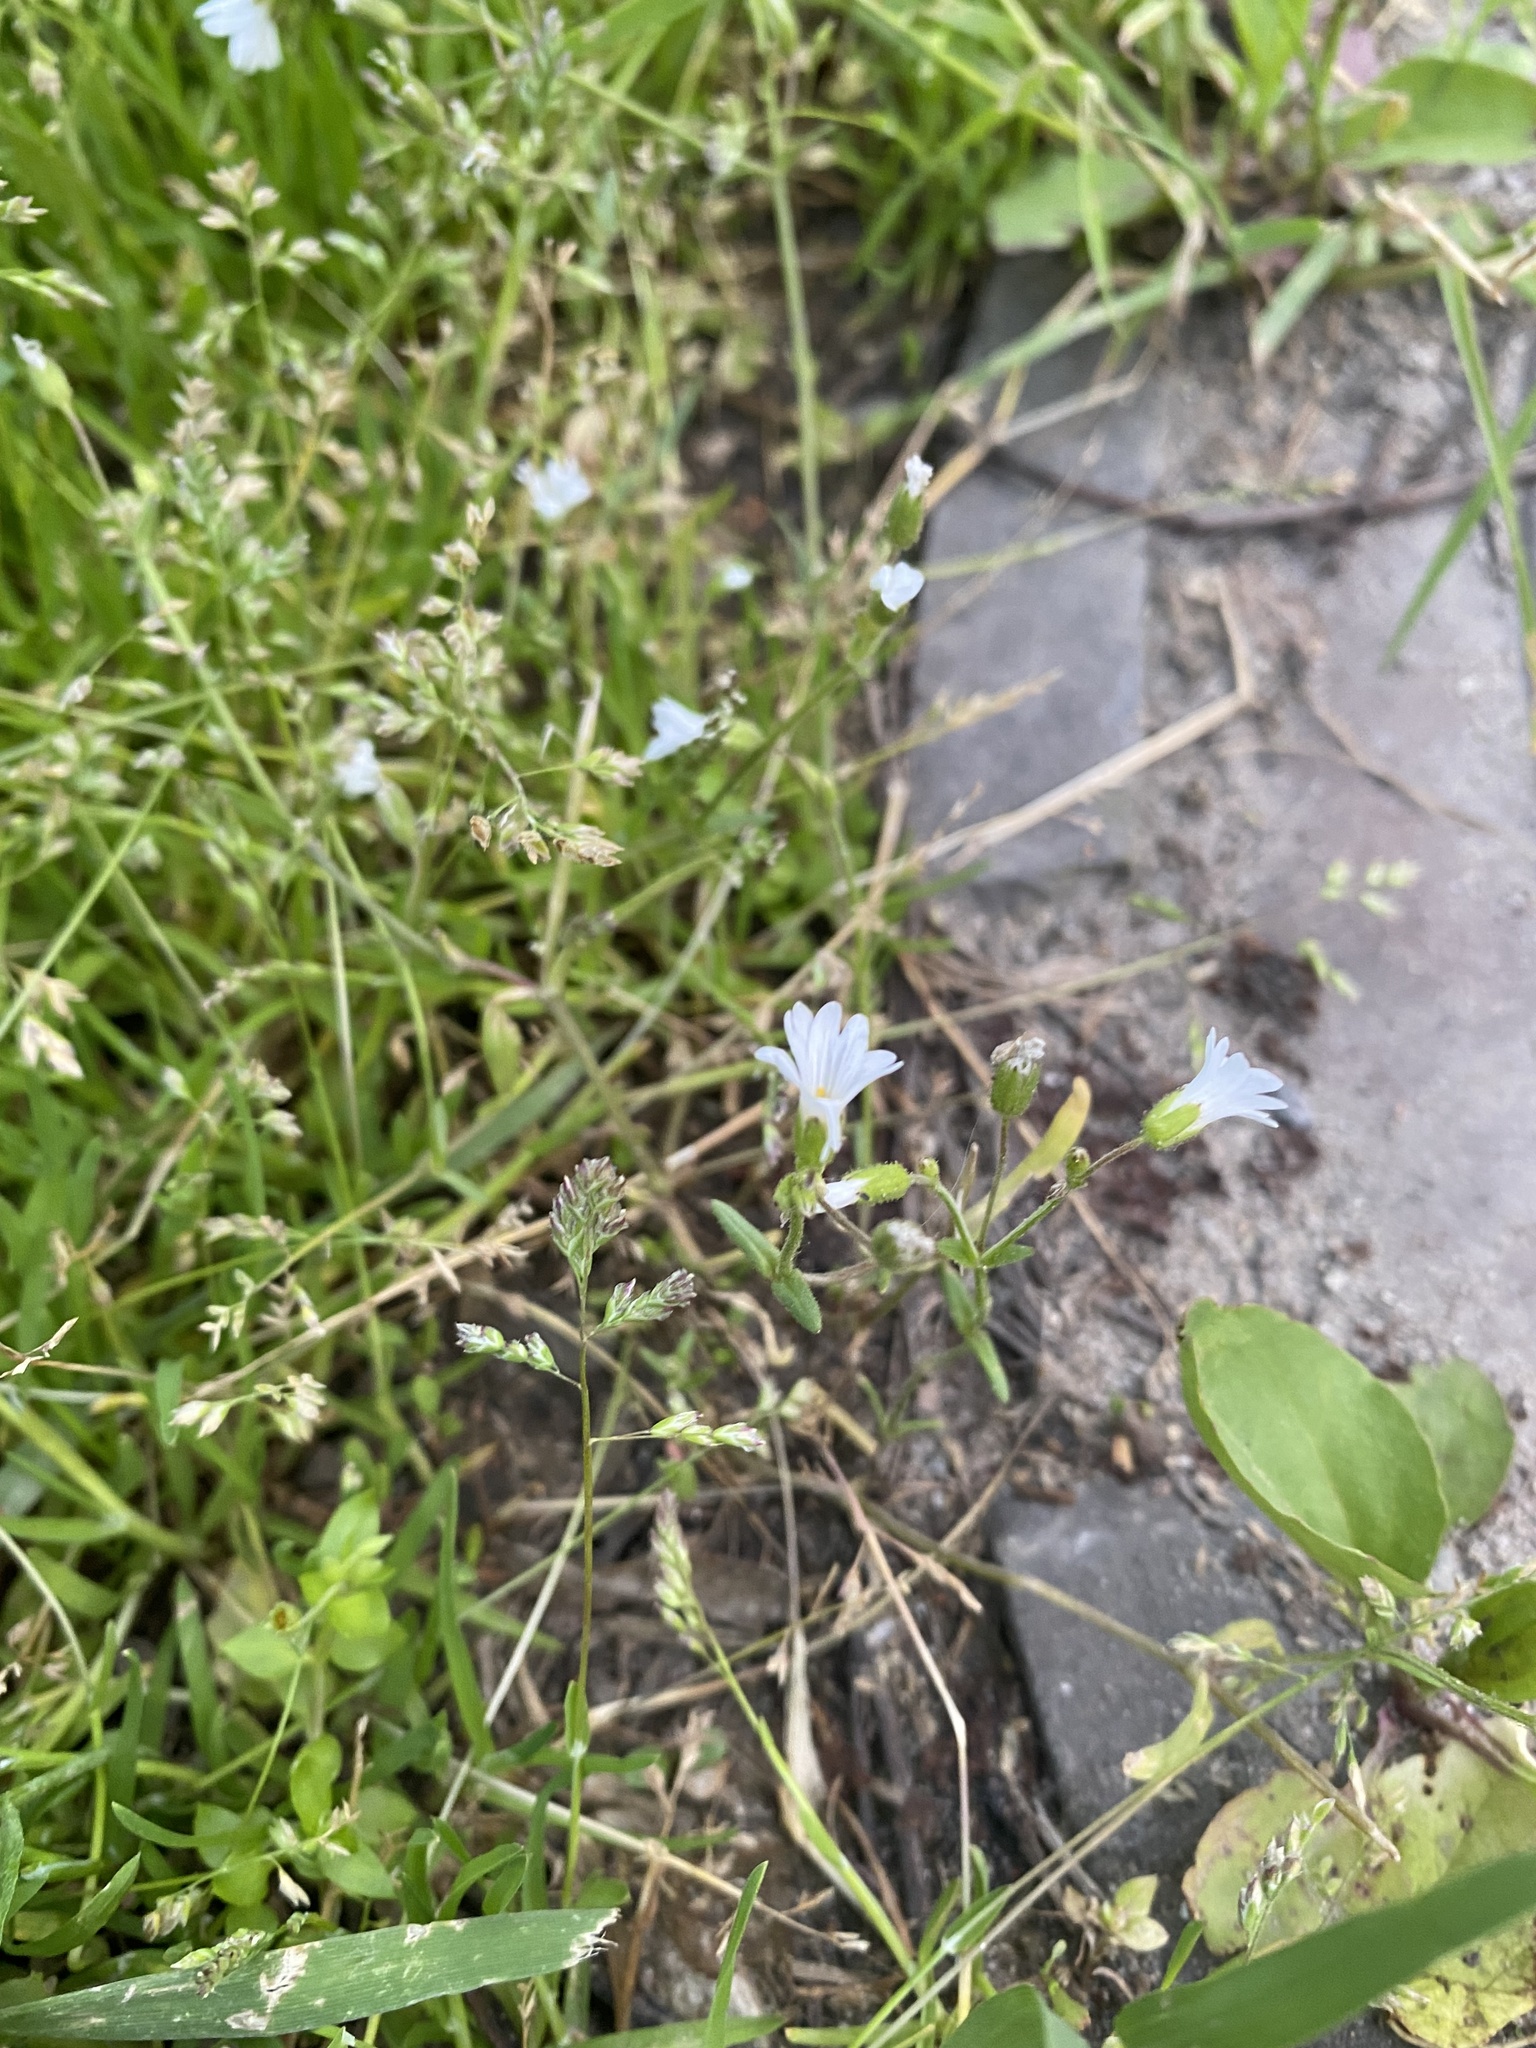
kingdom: Plantae
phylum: Tracheophyta
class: Magnoliopsida
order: Caryophyllales
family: Caryophyllaceae
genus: Dichodon
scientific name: Dichodon viscidum
